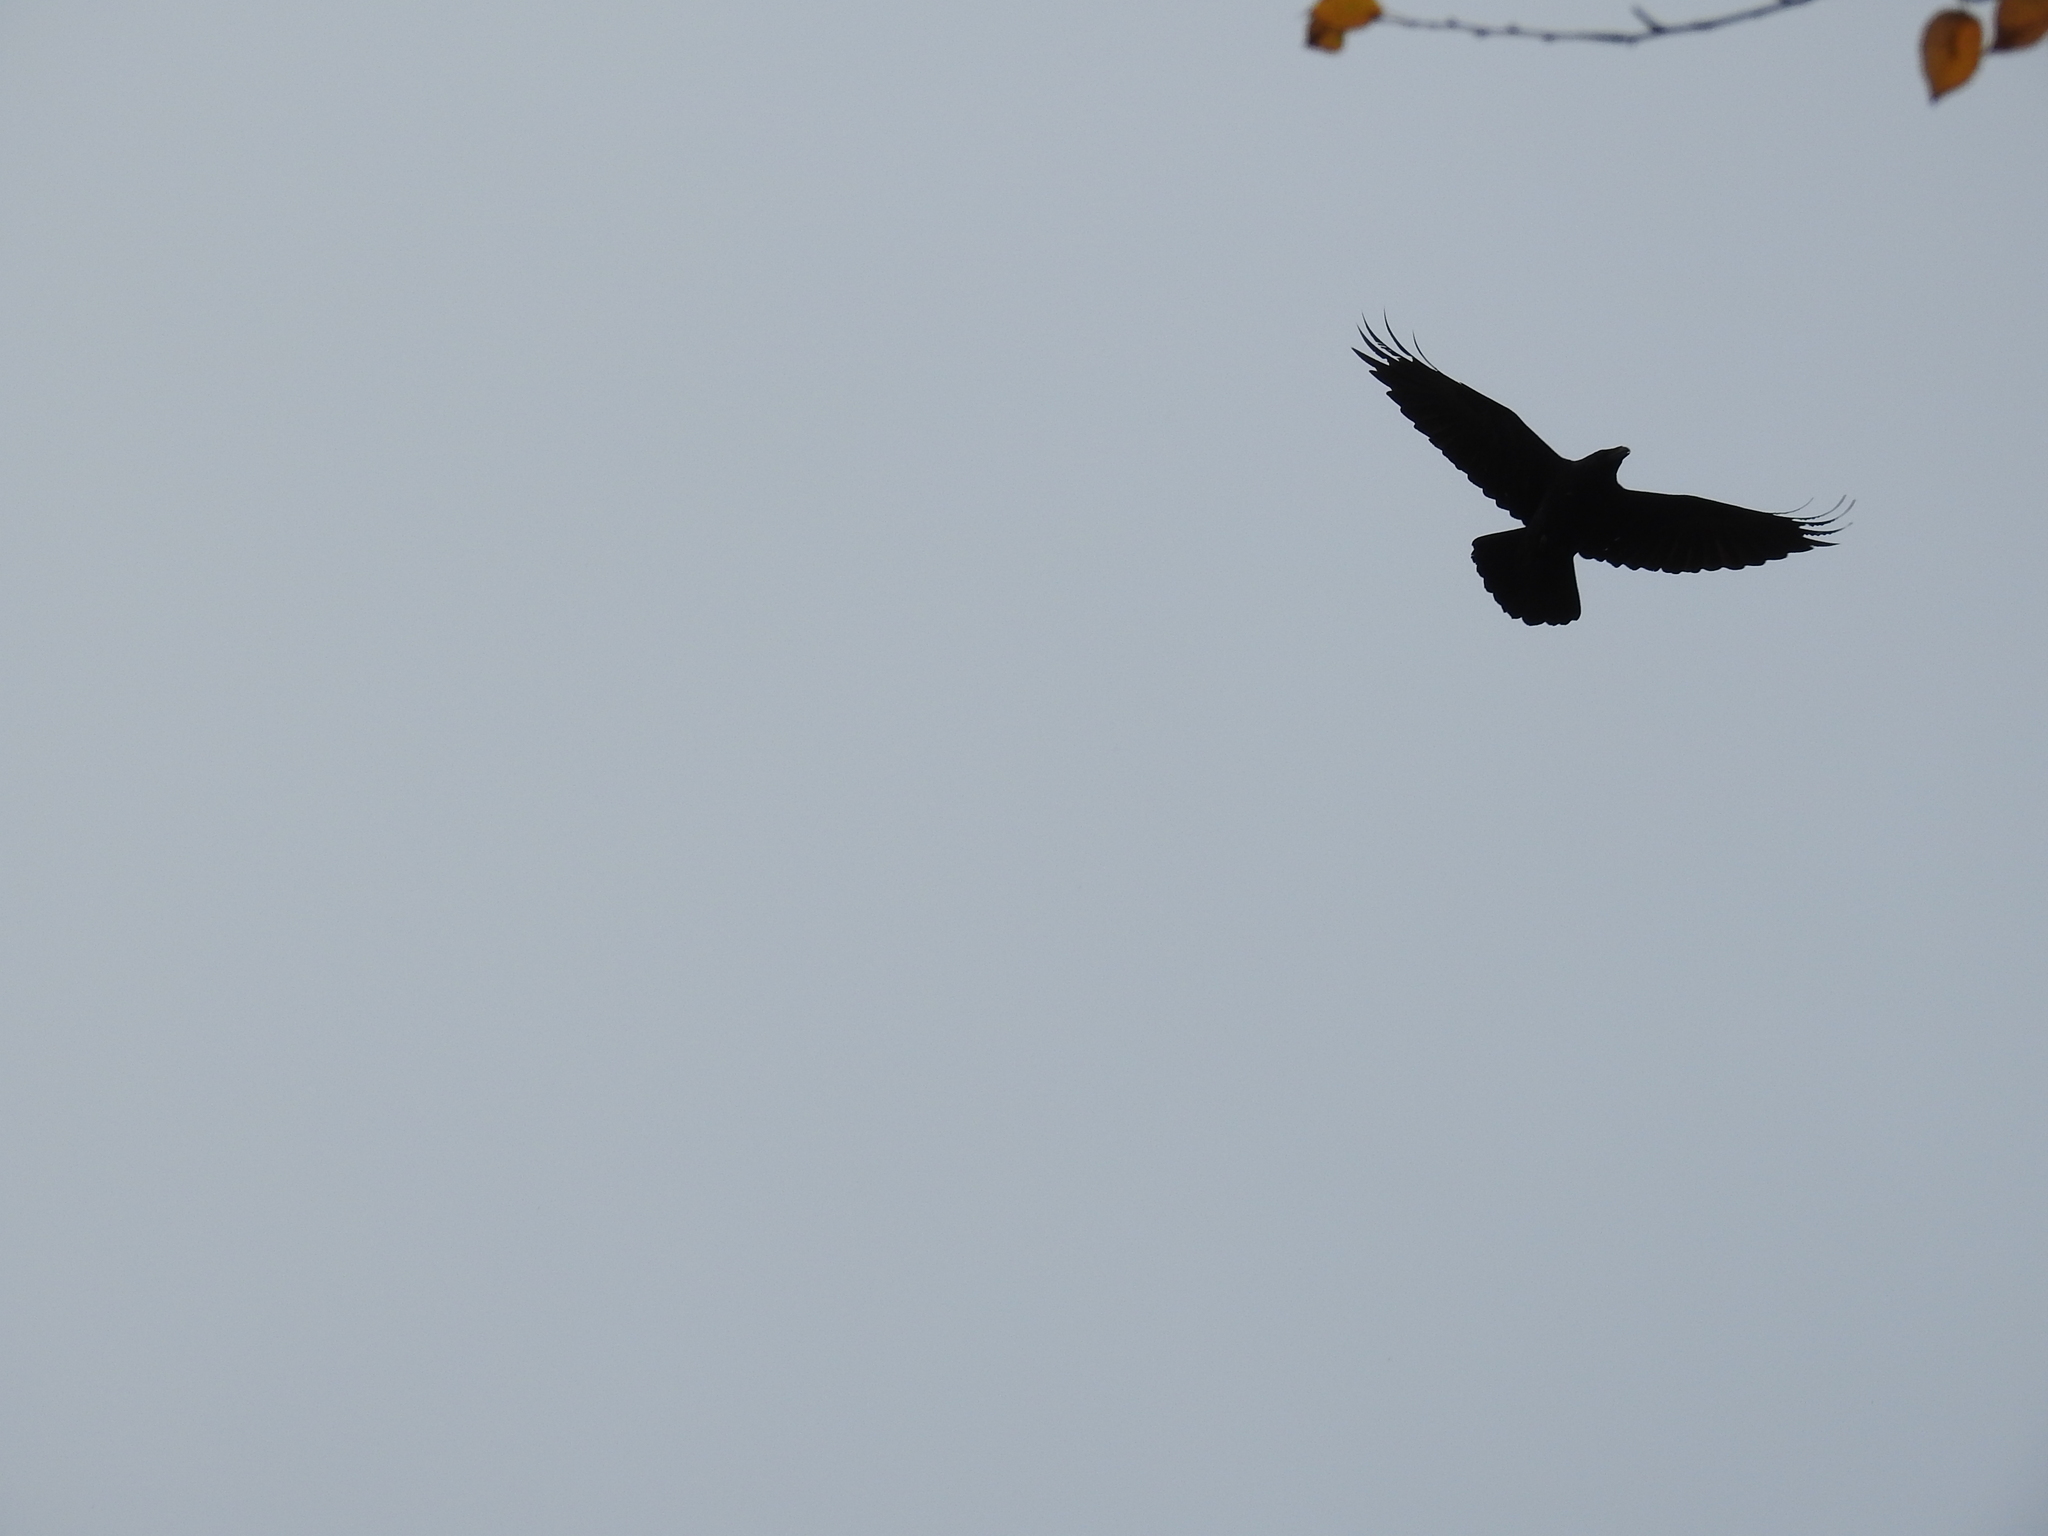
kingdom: Animalia
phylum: Chordata
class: Aves
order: Passeriformes
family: Corvidae
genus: Corvus
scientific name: Corvus corax
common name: Common raven
